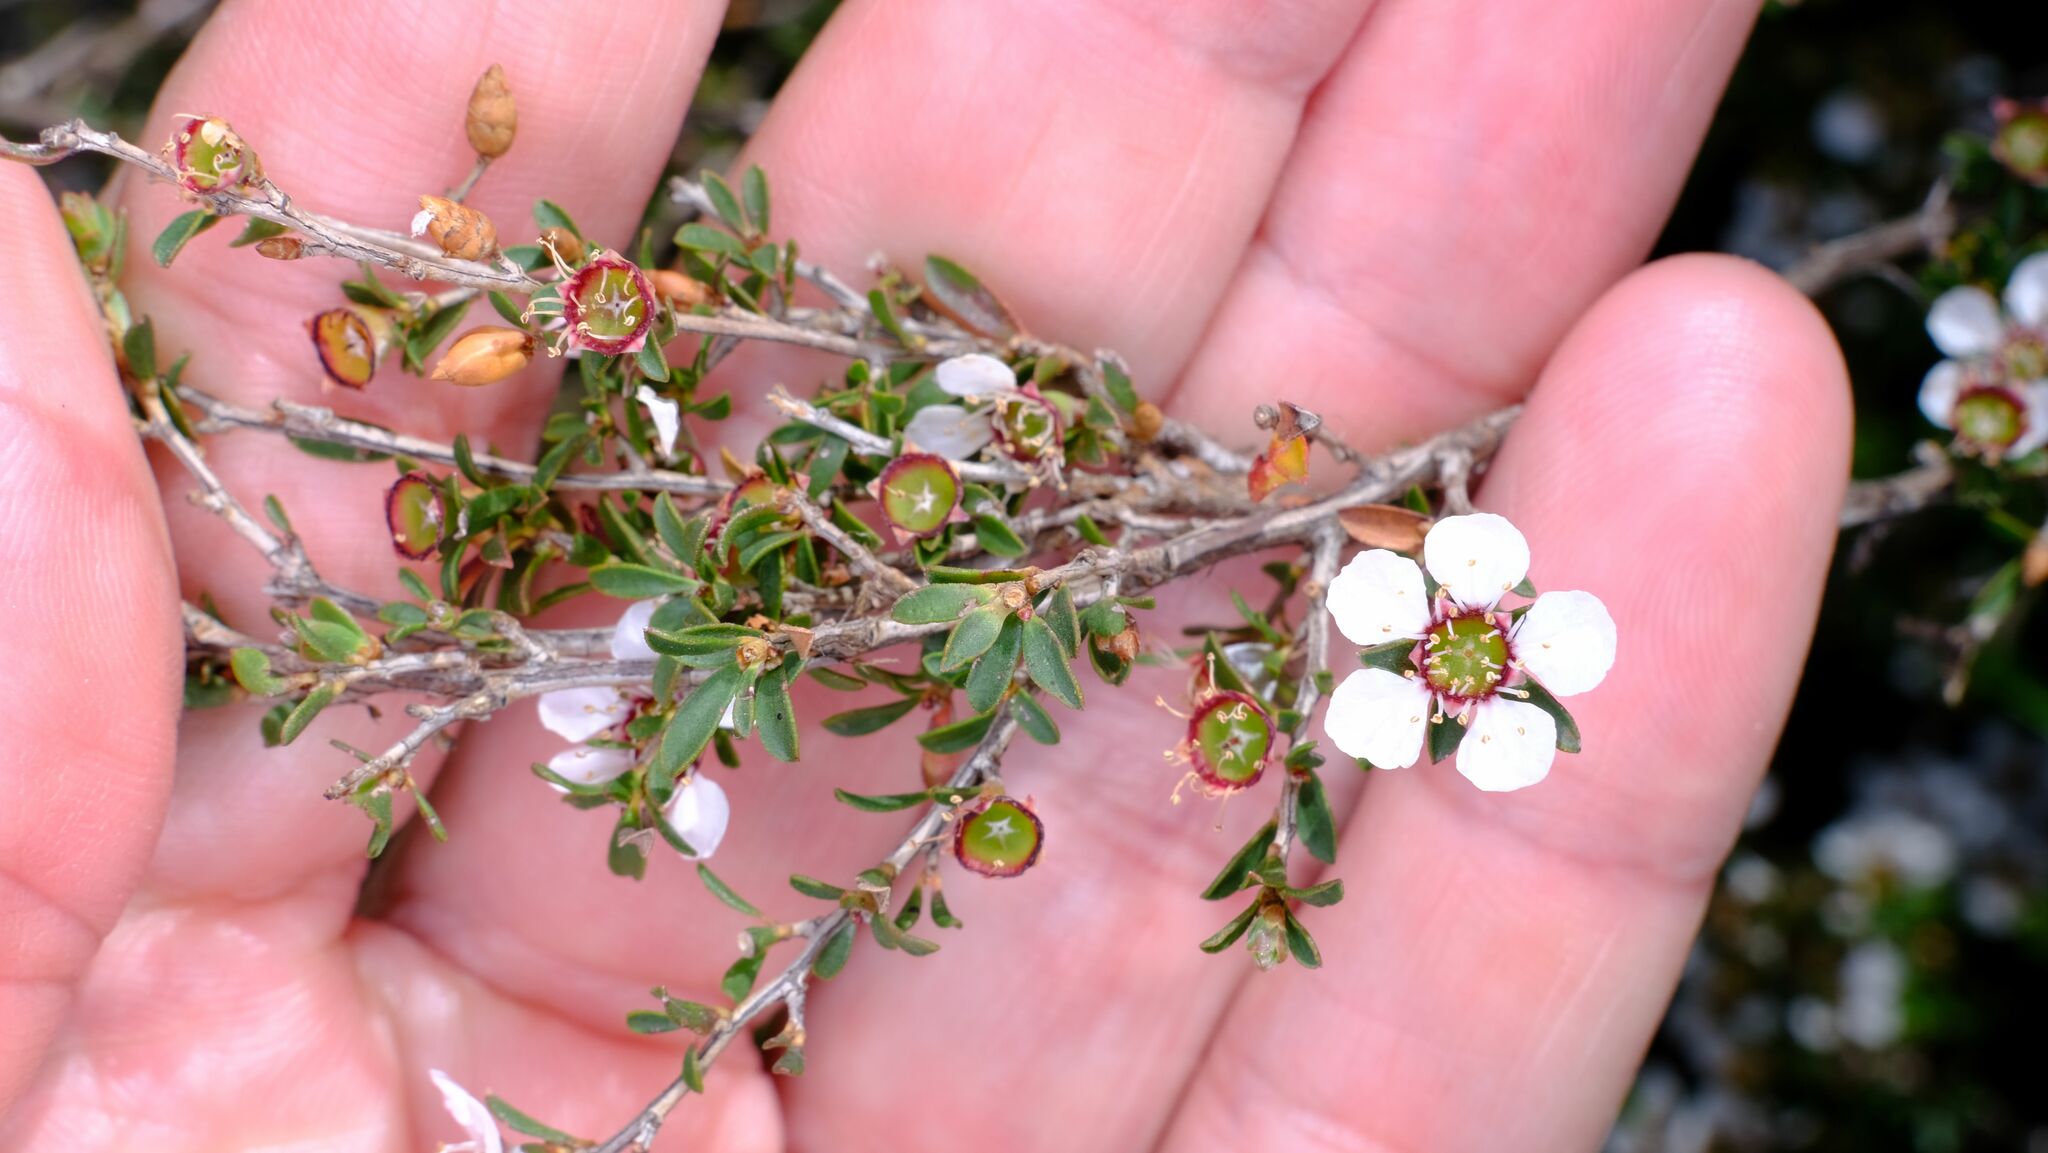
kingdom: Plantae
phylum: Tracheophyta
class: Magnoliopsida
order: Myrtales
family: Myrtaceae
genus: Leptospermum
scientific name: Leptospermum myrsinoides
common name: Heath teatree
